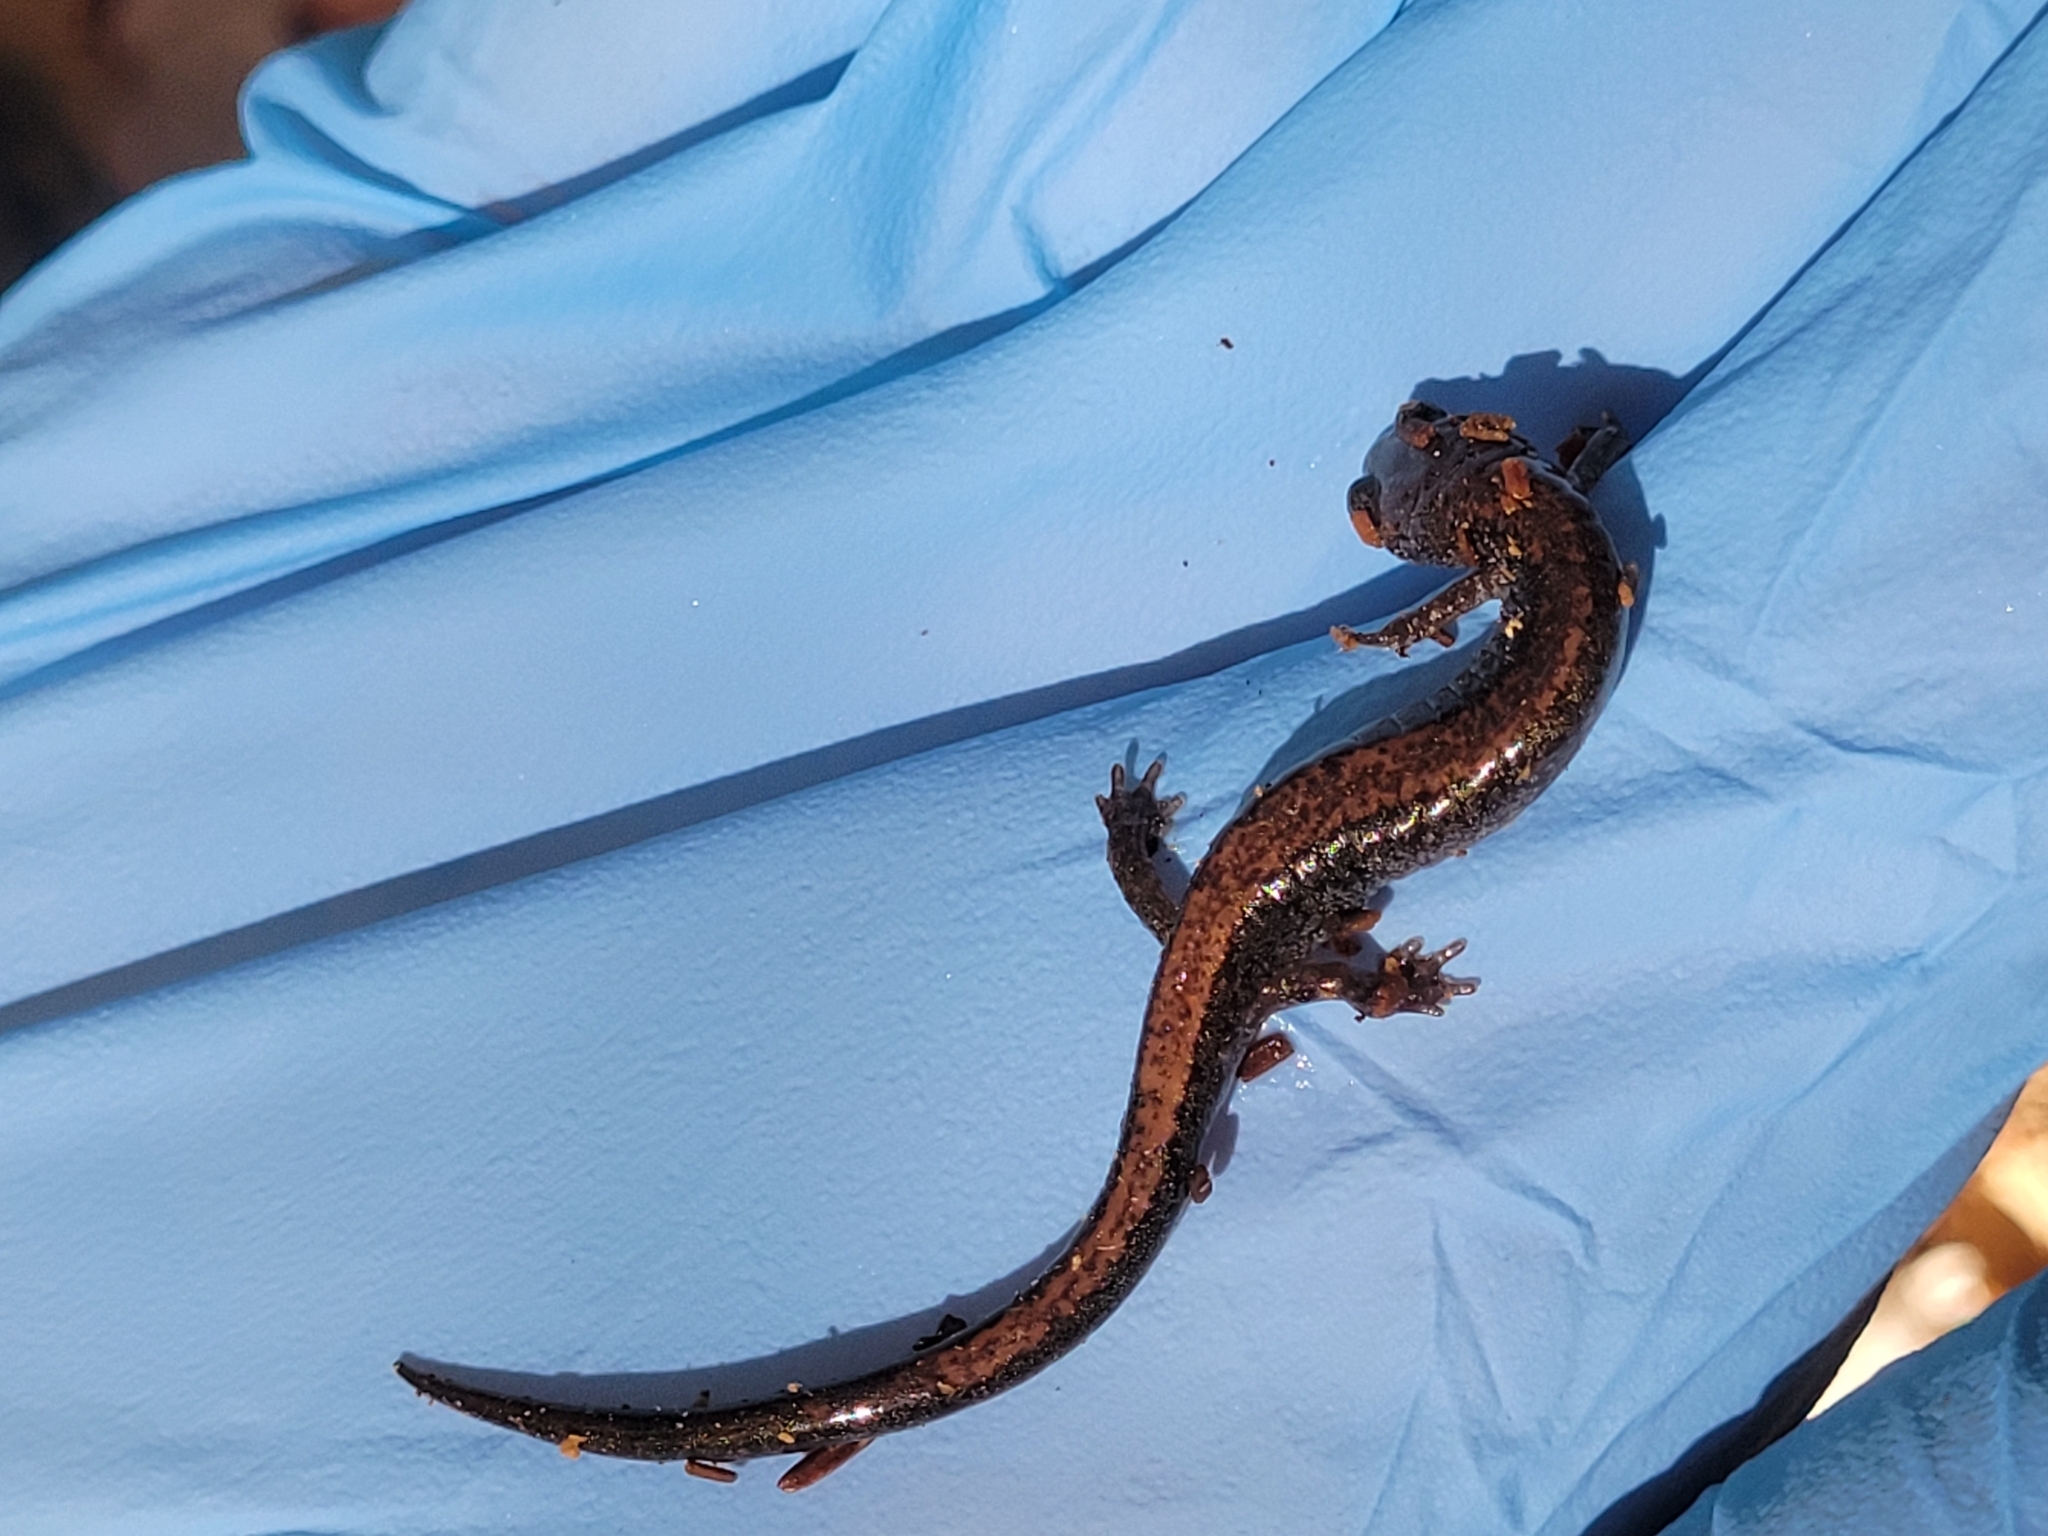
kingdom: Animalia
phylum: Chordata
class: Amphibia
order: Caudata
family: Plethodontidae
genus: Plethodon
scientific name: Plethodon cinereus
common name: Redback salamander
